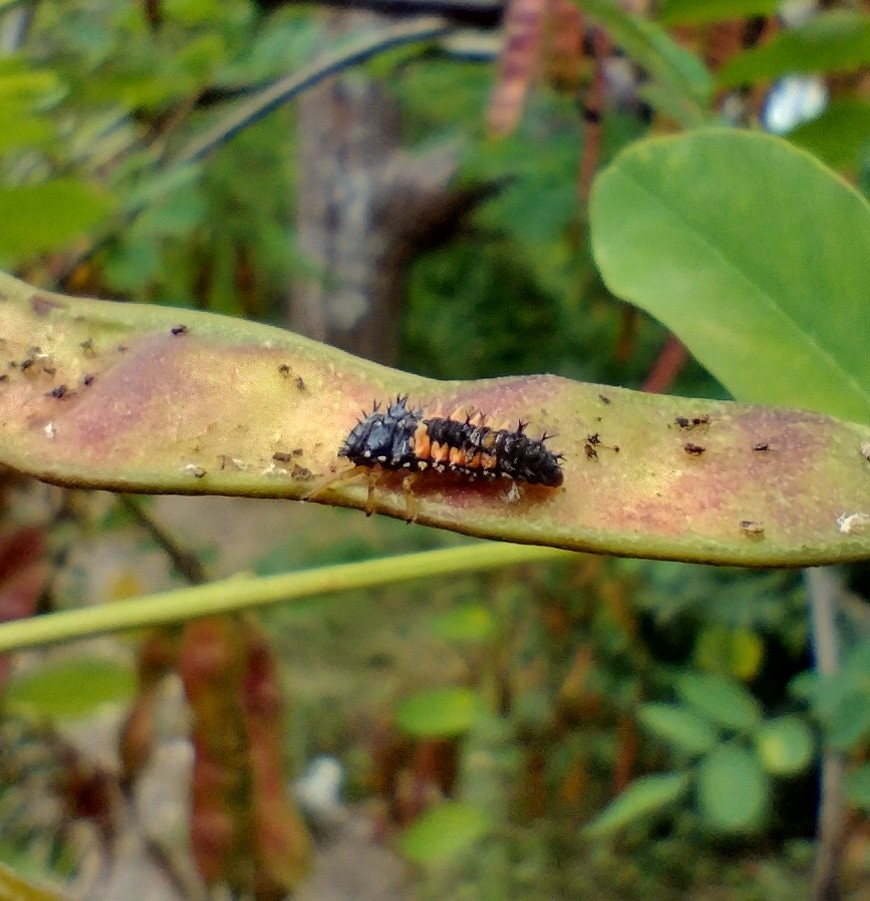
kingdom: Animalia
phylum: Arthropoda
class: Insecta
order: Coleoptera
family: Coccinellidae
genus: Harmonia
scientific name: Harmonia axyridis
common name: Harlequin ladybird
